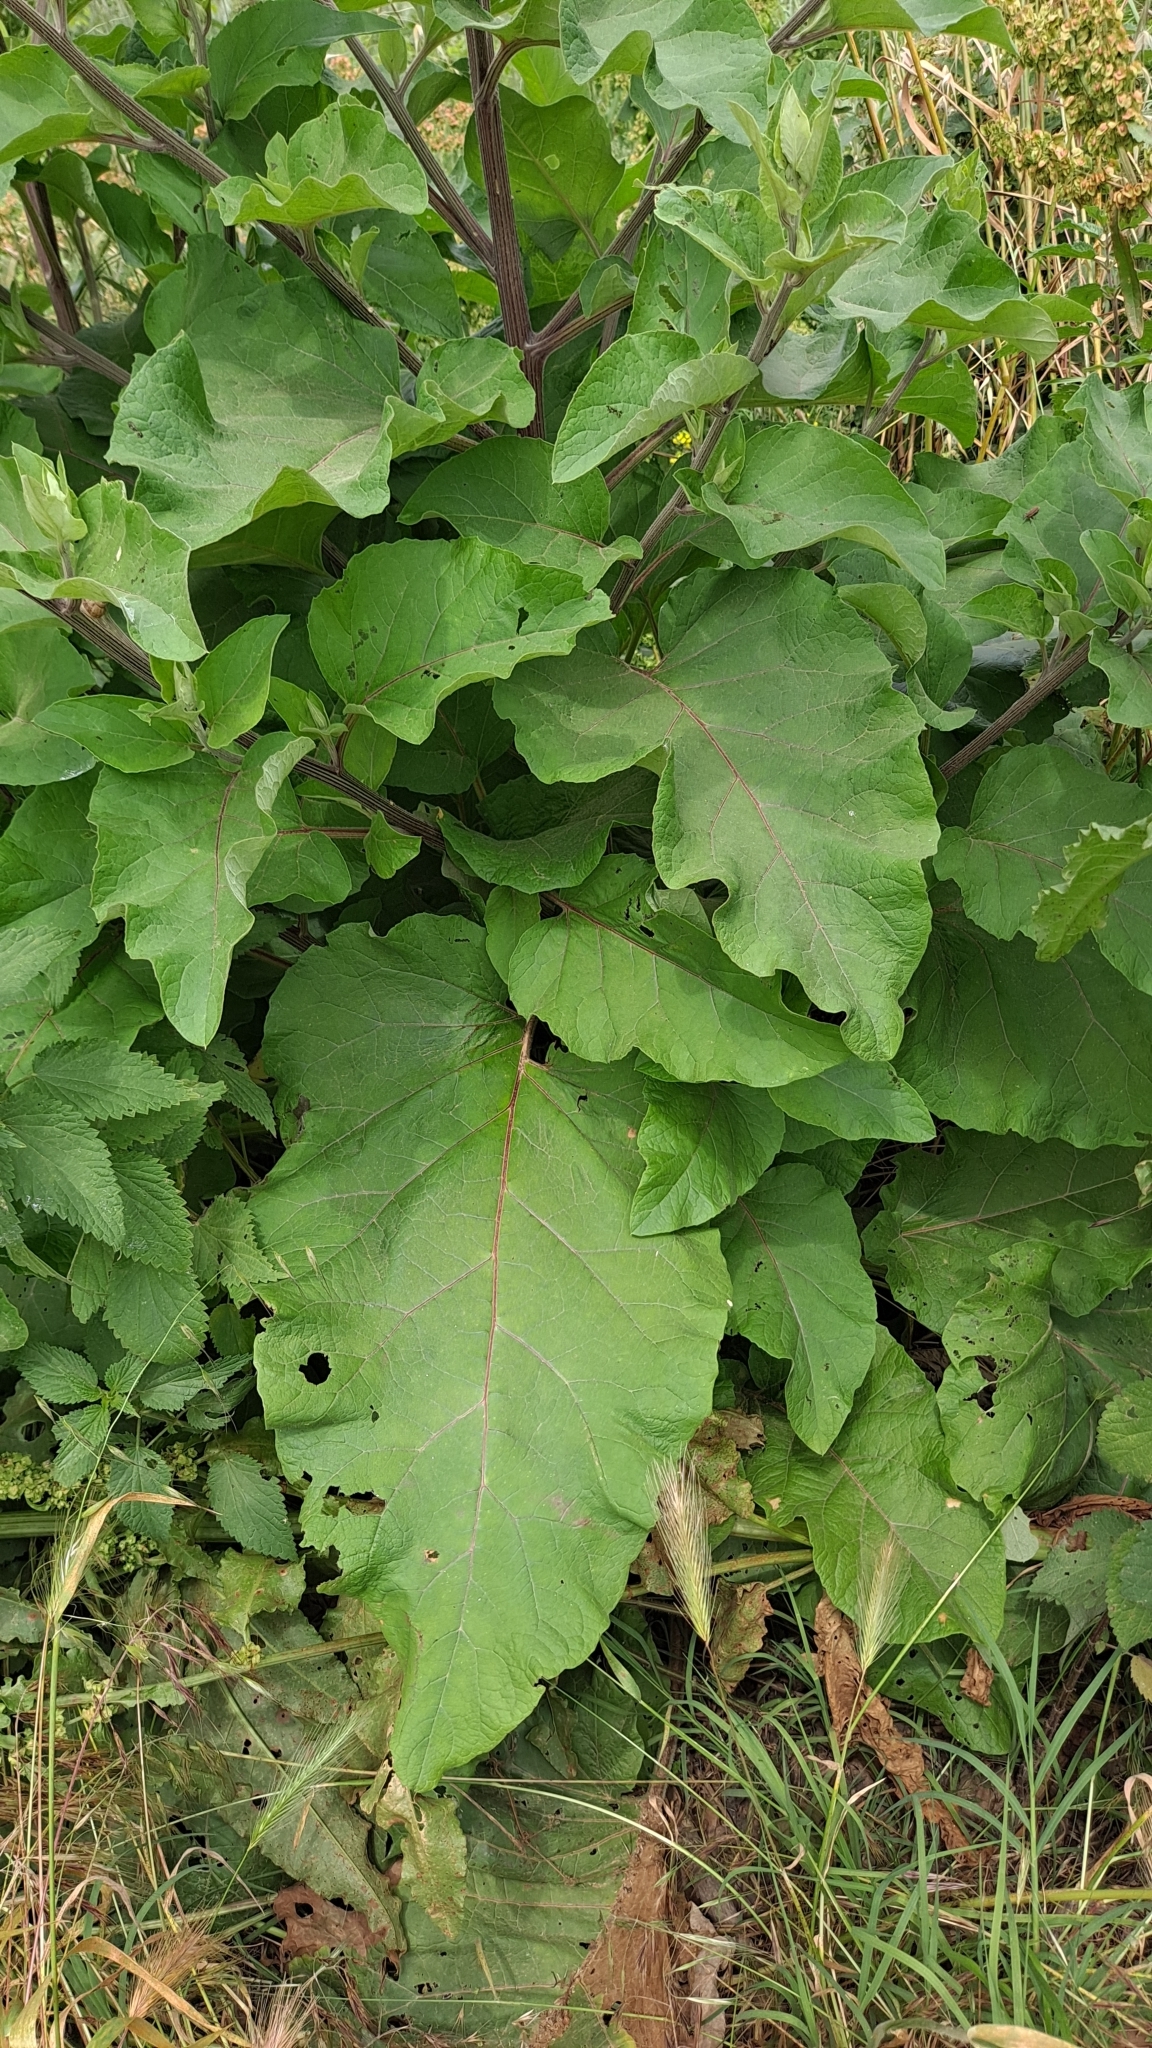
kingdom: Plantae
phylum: Tracheophyta
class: Magnoliopsida
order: Asterales
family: Asteraceae
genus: Arctium
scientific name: Arctium lappa
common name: Greater burdock
